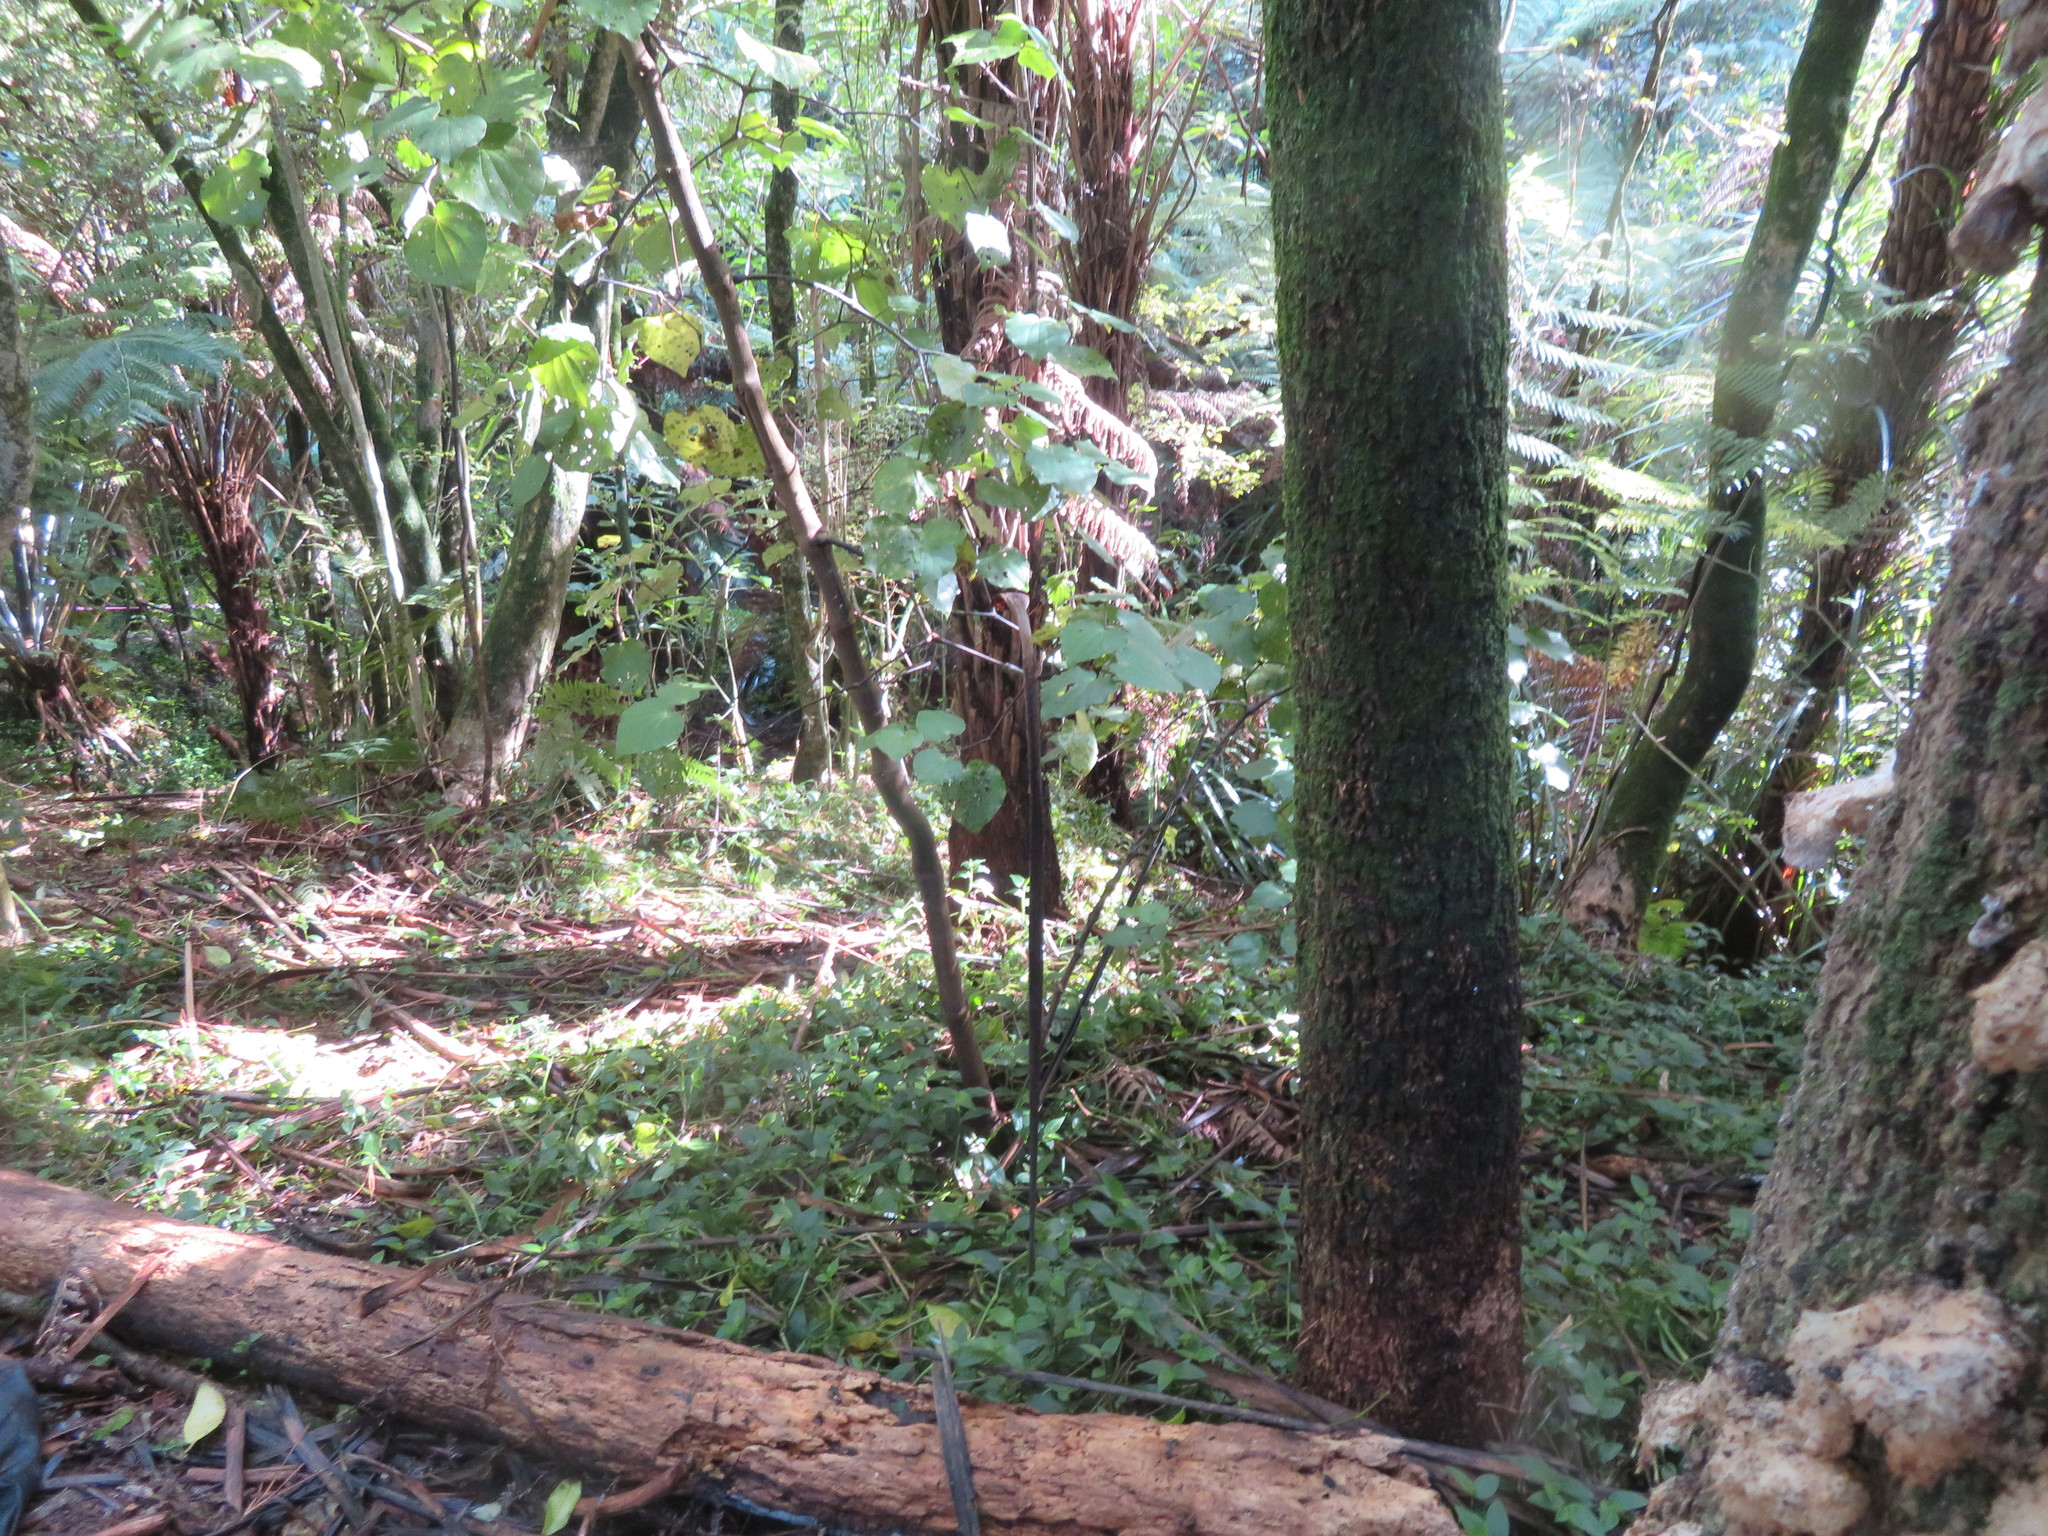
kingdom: Plantae
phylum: Tracheophyta
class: Liliopsida
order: Commelinales
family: Commelinaceae
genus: Tradescantia
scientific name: Tradescantia fluminensis
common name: Wandering-jew
